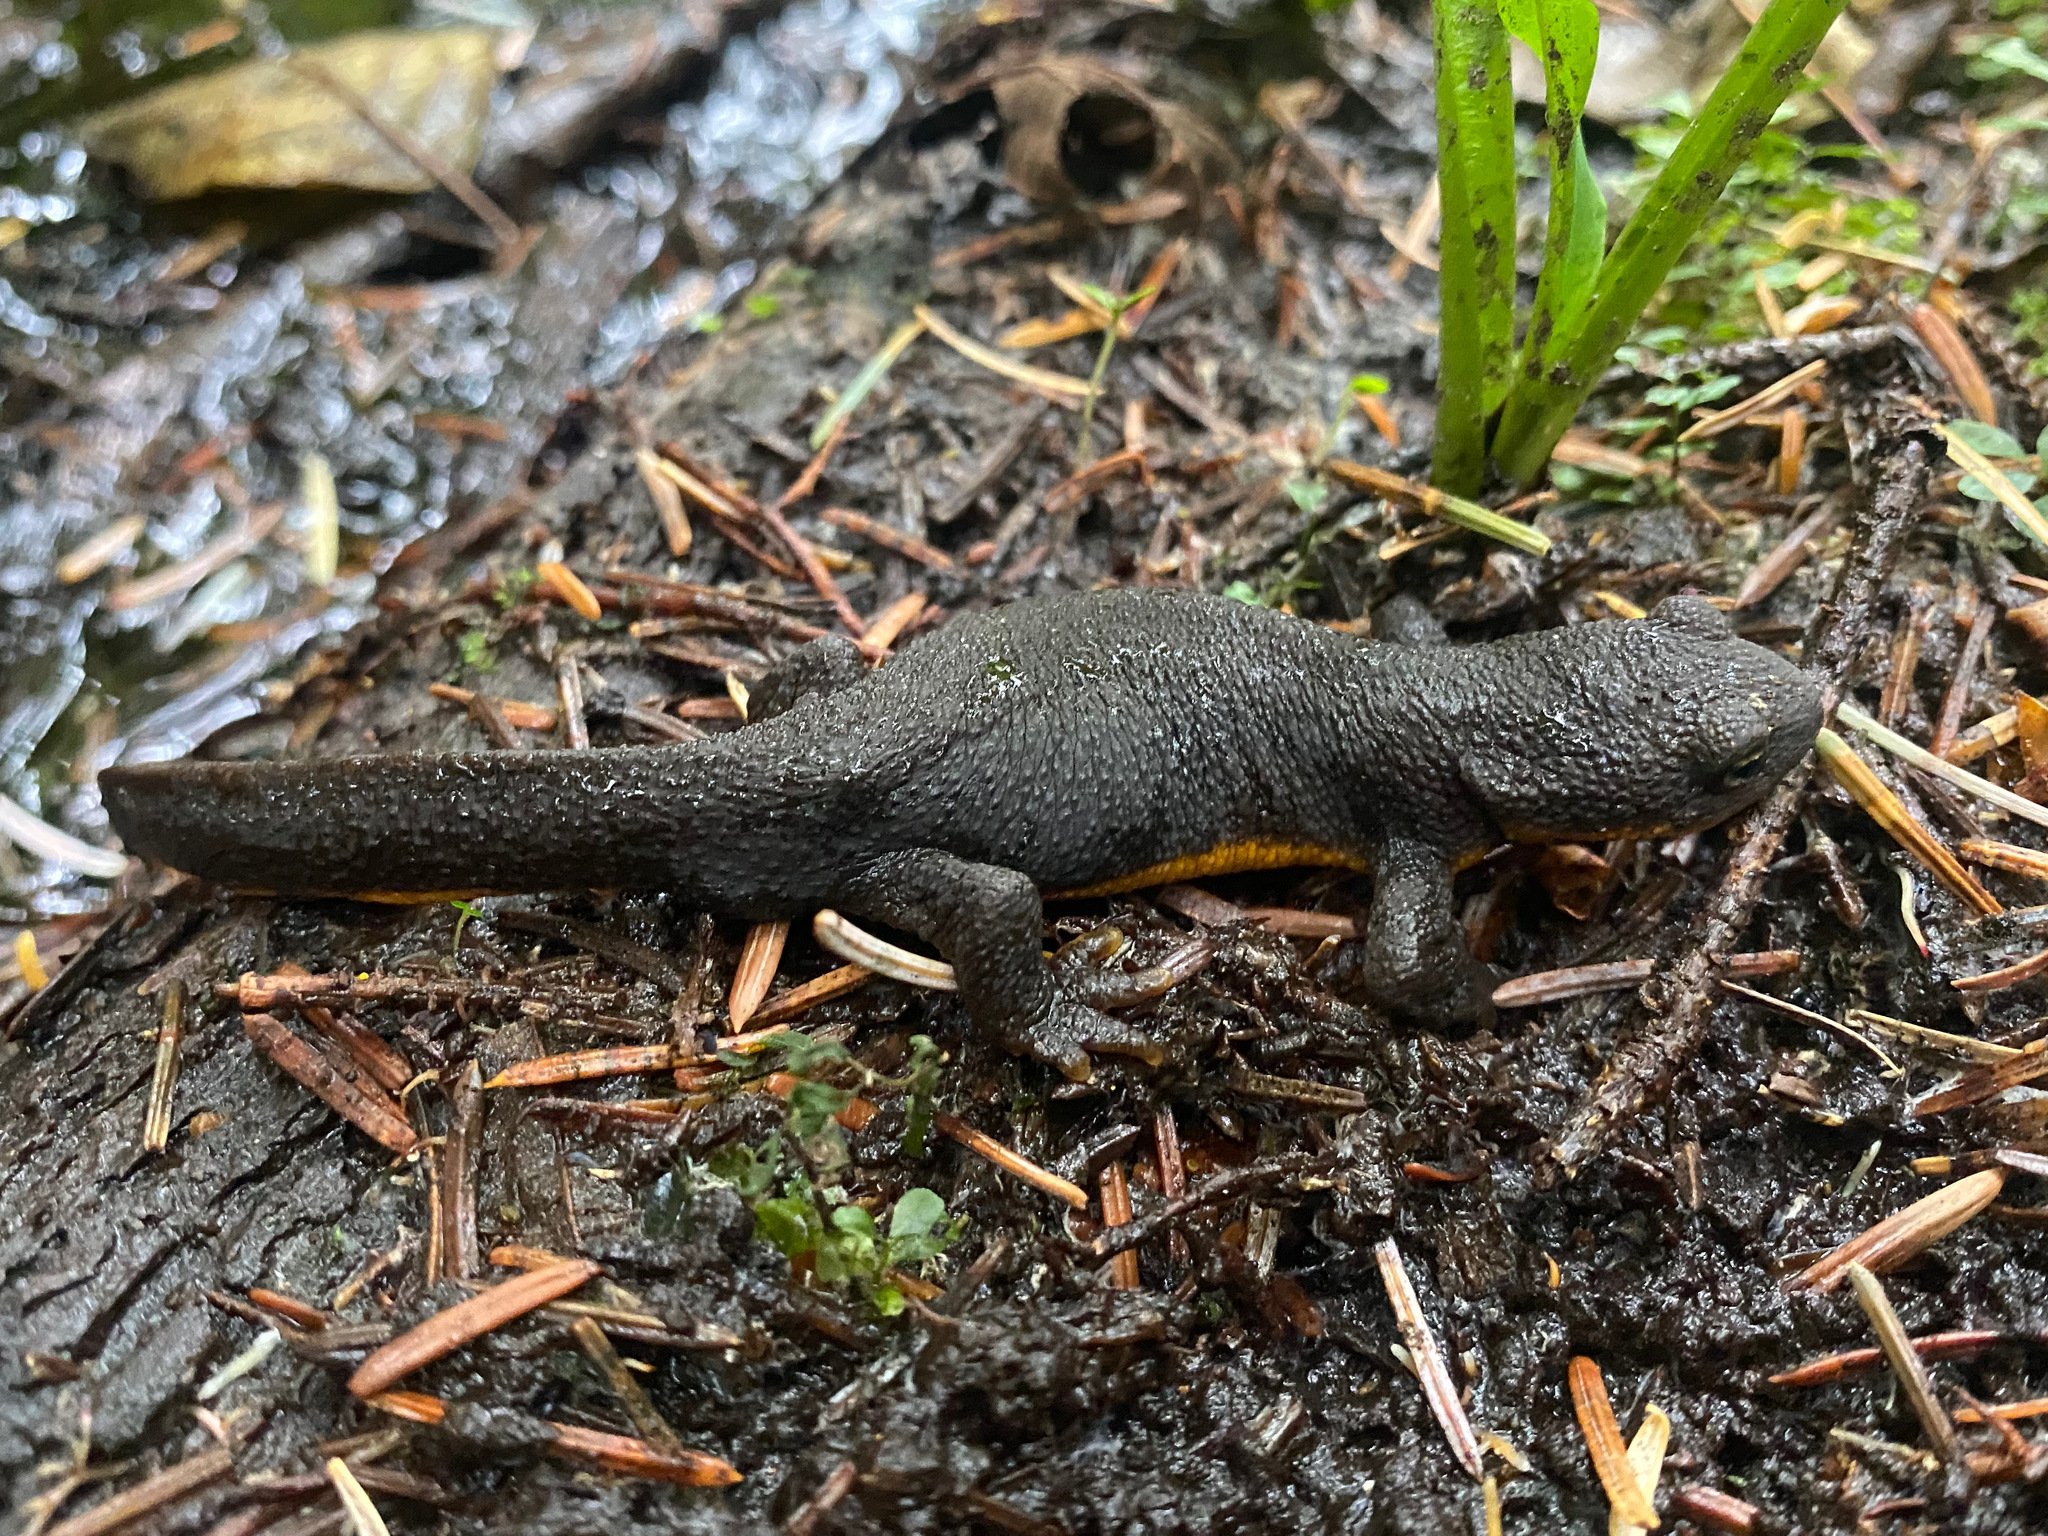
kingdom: Animalia
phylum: Chordata
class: Amphibia
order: Caudata
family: Salamandridae
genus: Taricha
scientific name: Taricha granulosa
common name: Roughskin newt
